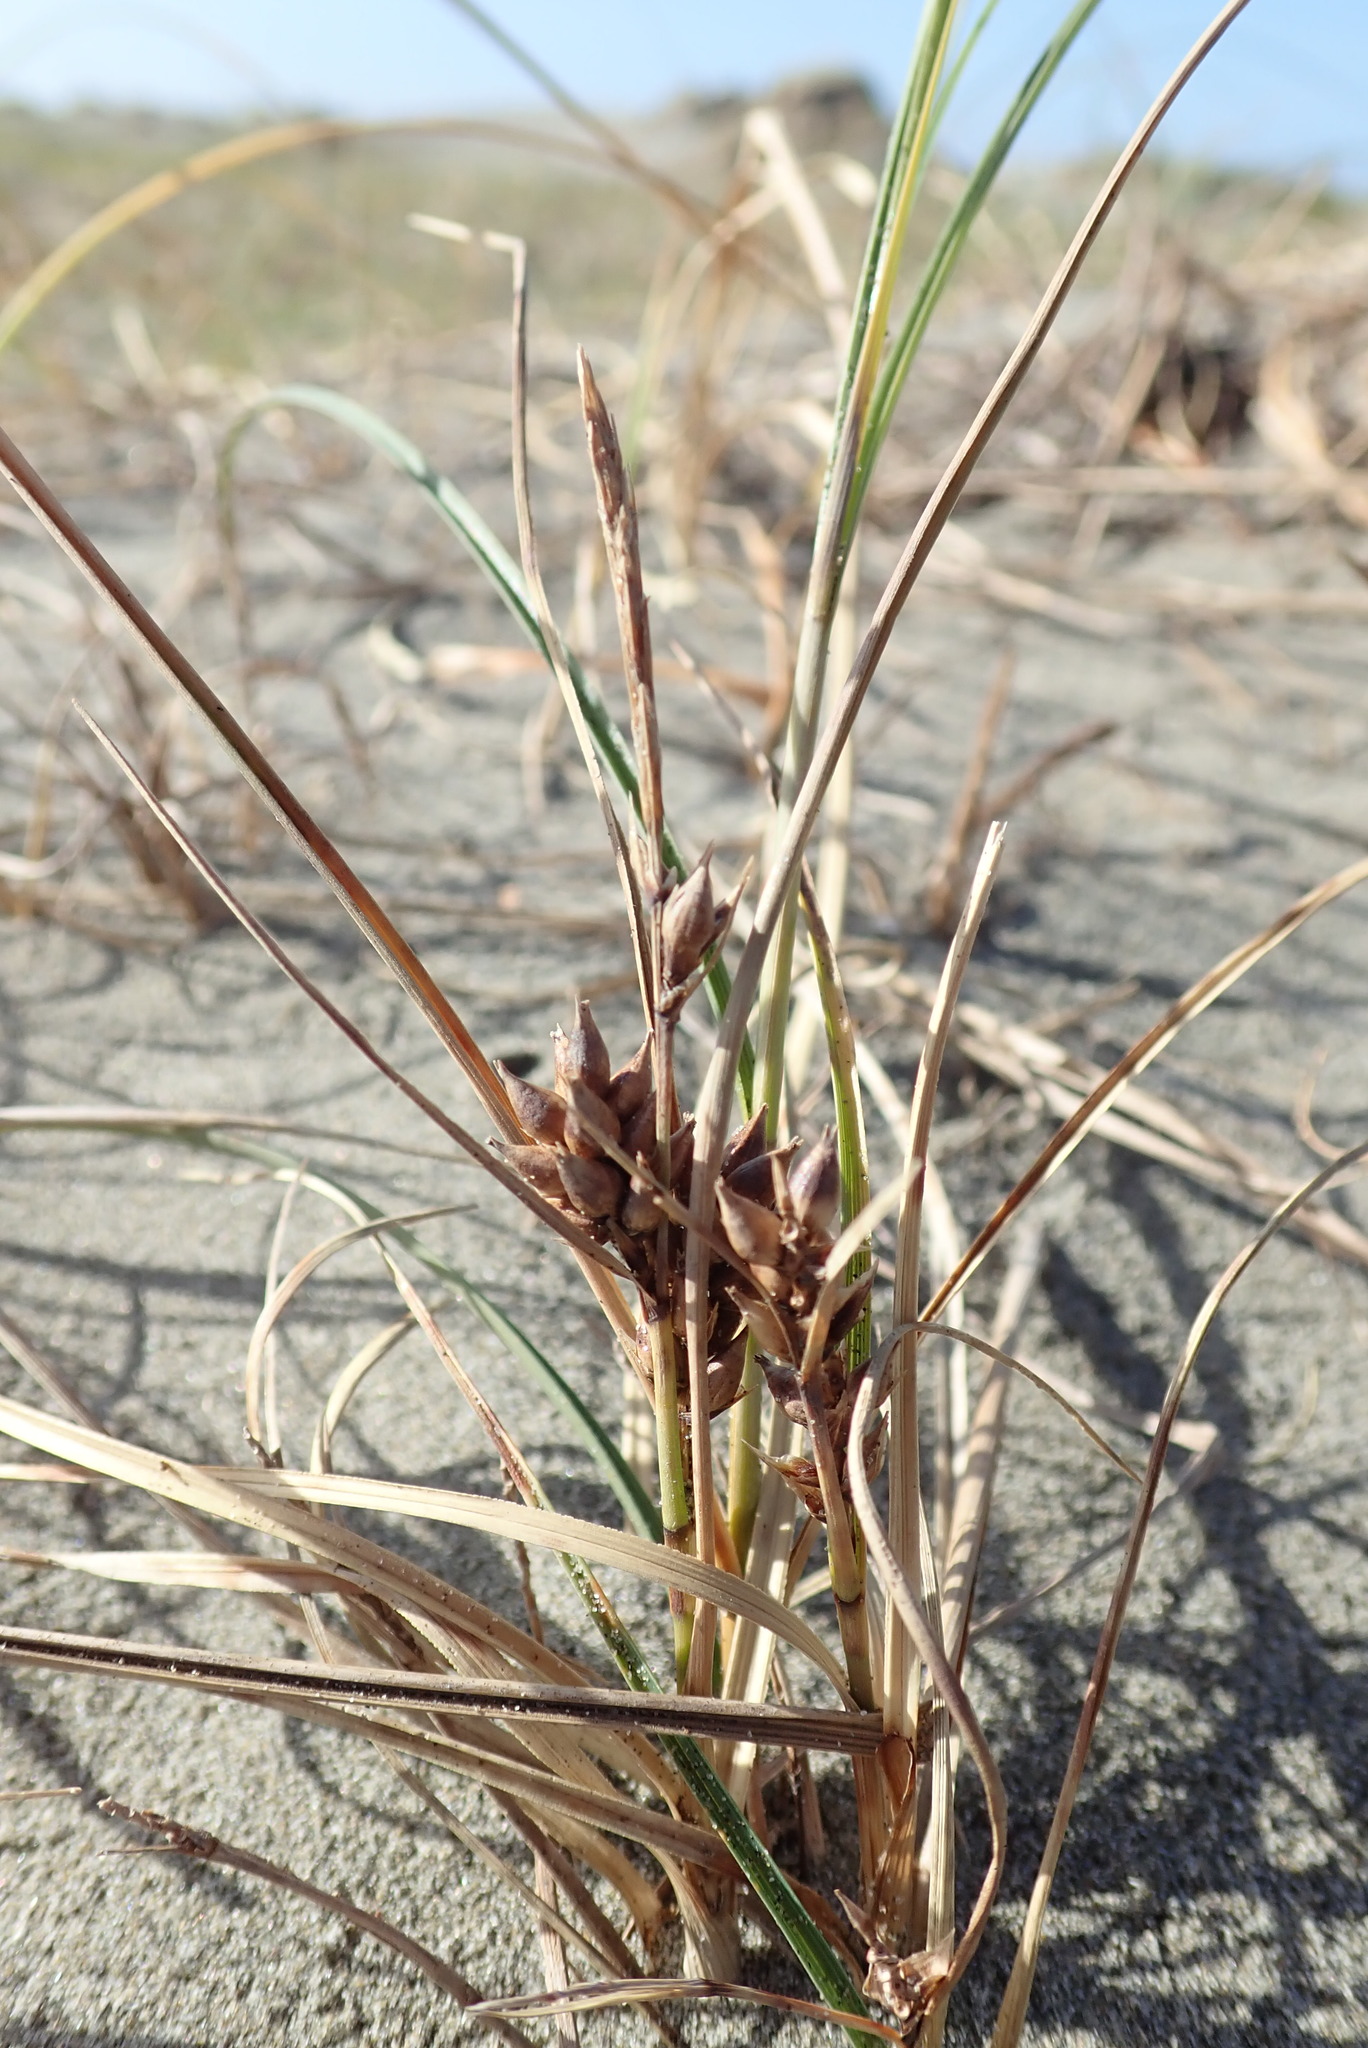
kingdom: Plantae
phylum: Tracheophyta
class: Liliopsida
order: Poales
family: Cyperaceae
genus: Carex
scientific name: Carex pumila
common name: Dwarf sedge
